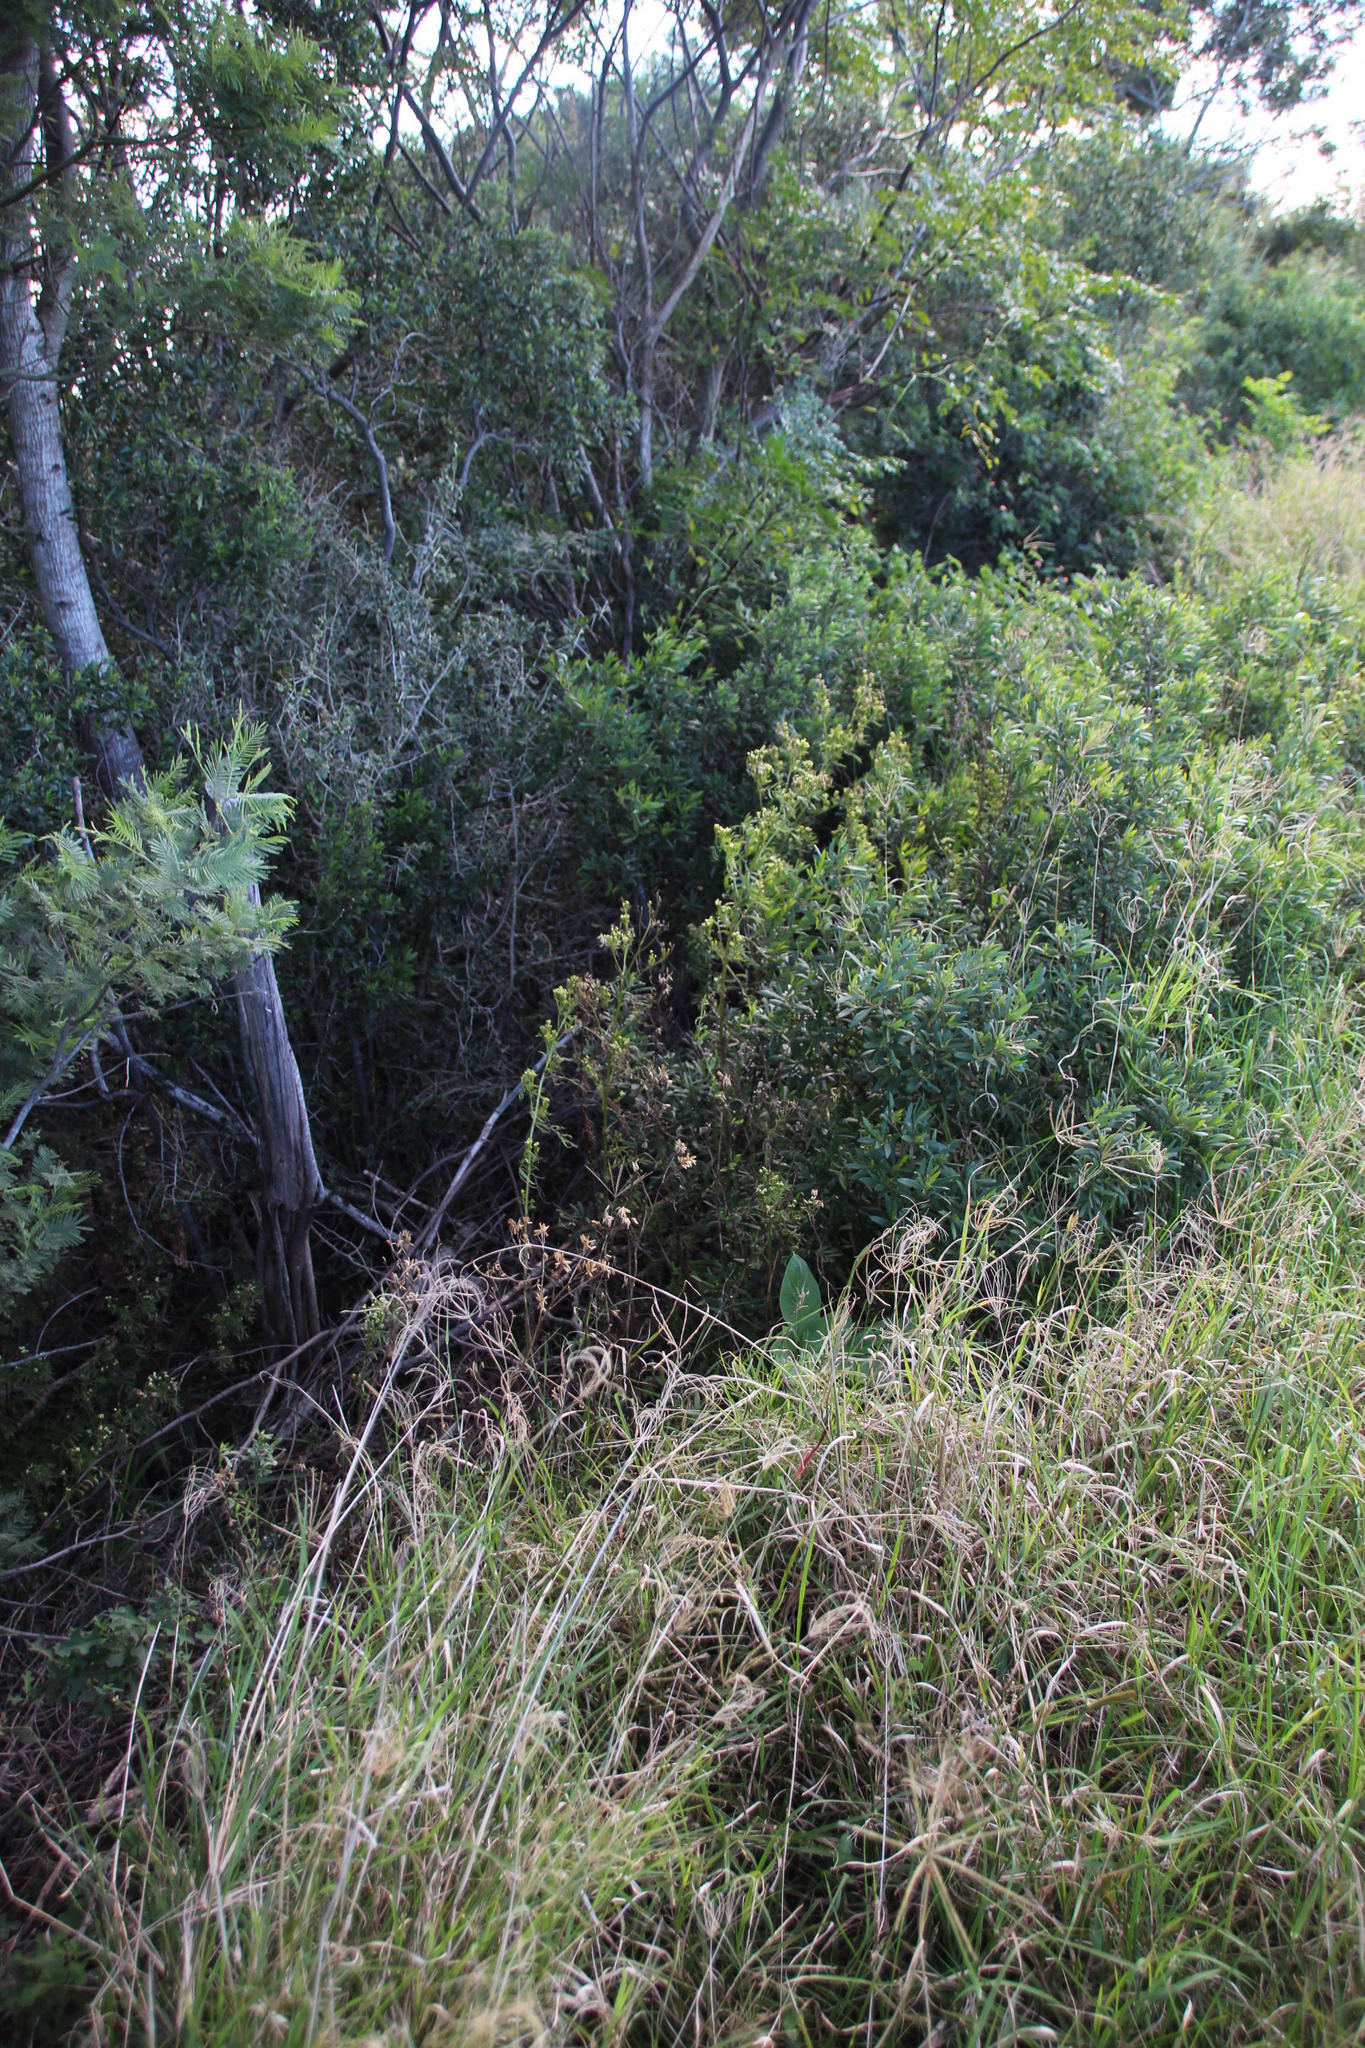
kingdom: Plantae
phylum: Tracheophyta
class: Magnoliopsida
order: Asterales
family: Asteraceae
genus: Tagetes
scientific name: Tagetes minuta
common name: Muster john henry
